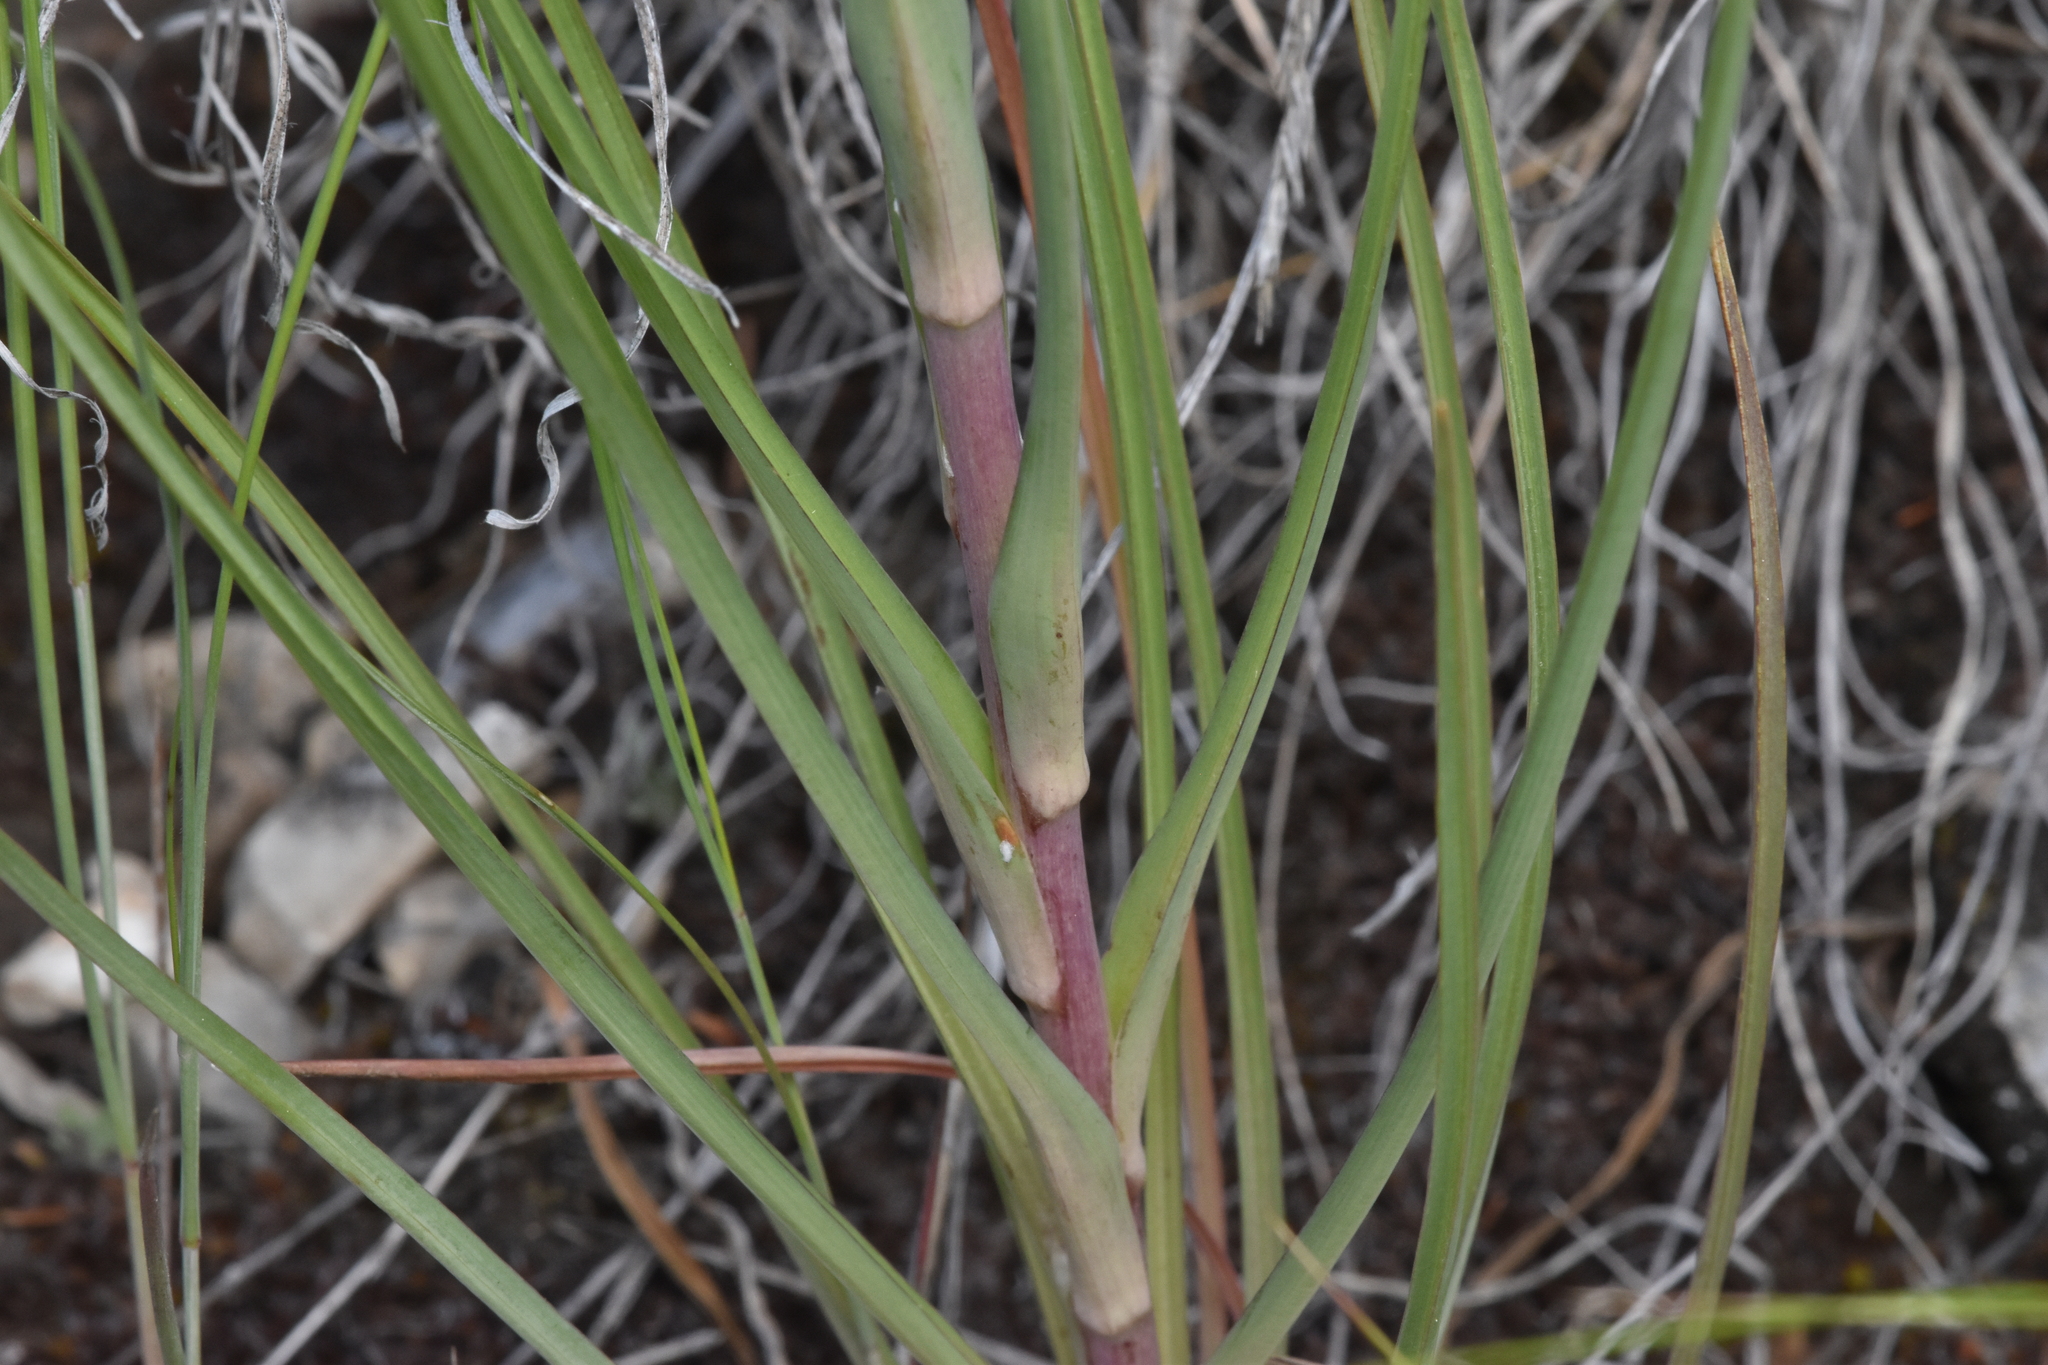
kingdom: Plantae
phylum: Tracheophyta
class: Magnoliopsida
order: Asterales
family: Asteraceae
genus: Tragopogon
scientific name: Tragopogon dubius
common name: Yellow salsify
